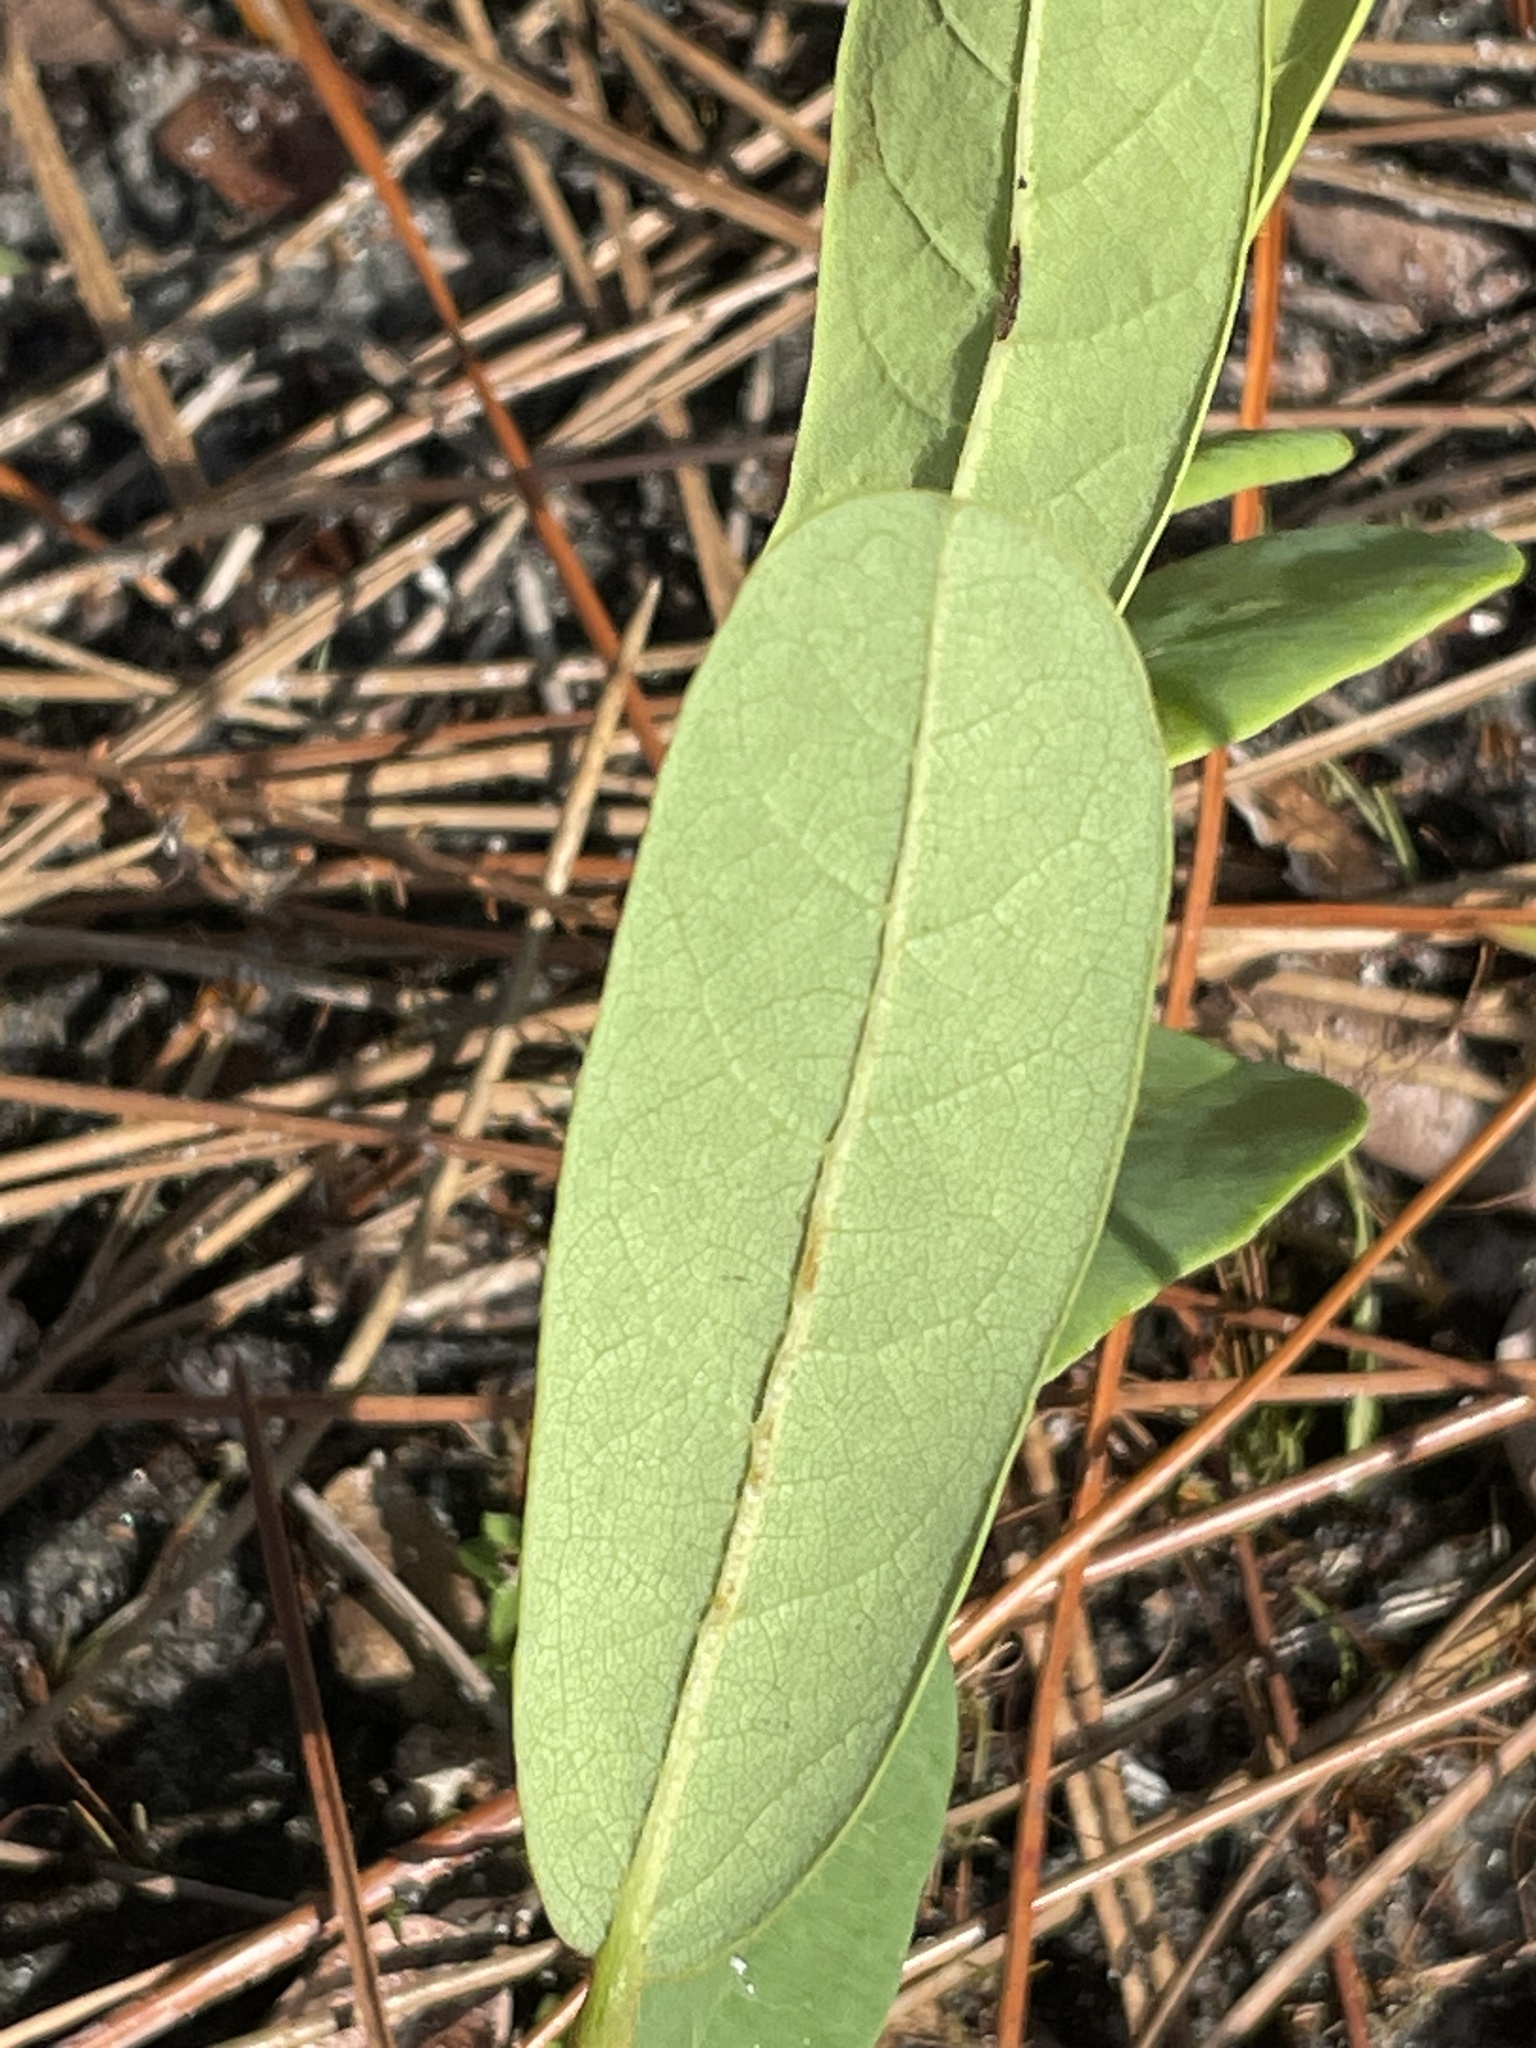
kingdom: Plantae
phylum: Tracheophyta
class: Magnoliopsida
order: Magnoliales
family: Annonaceae
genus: Asimina
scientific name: Asimina reticulata
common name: Flag pawpaw
